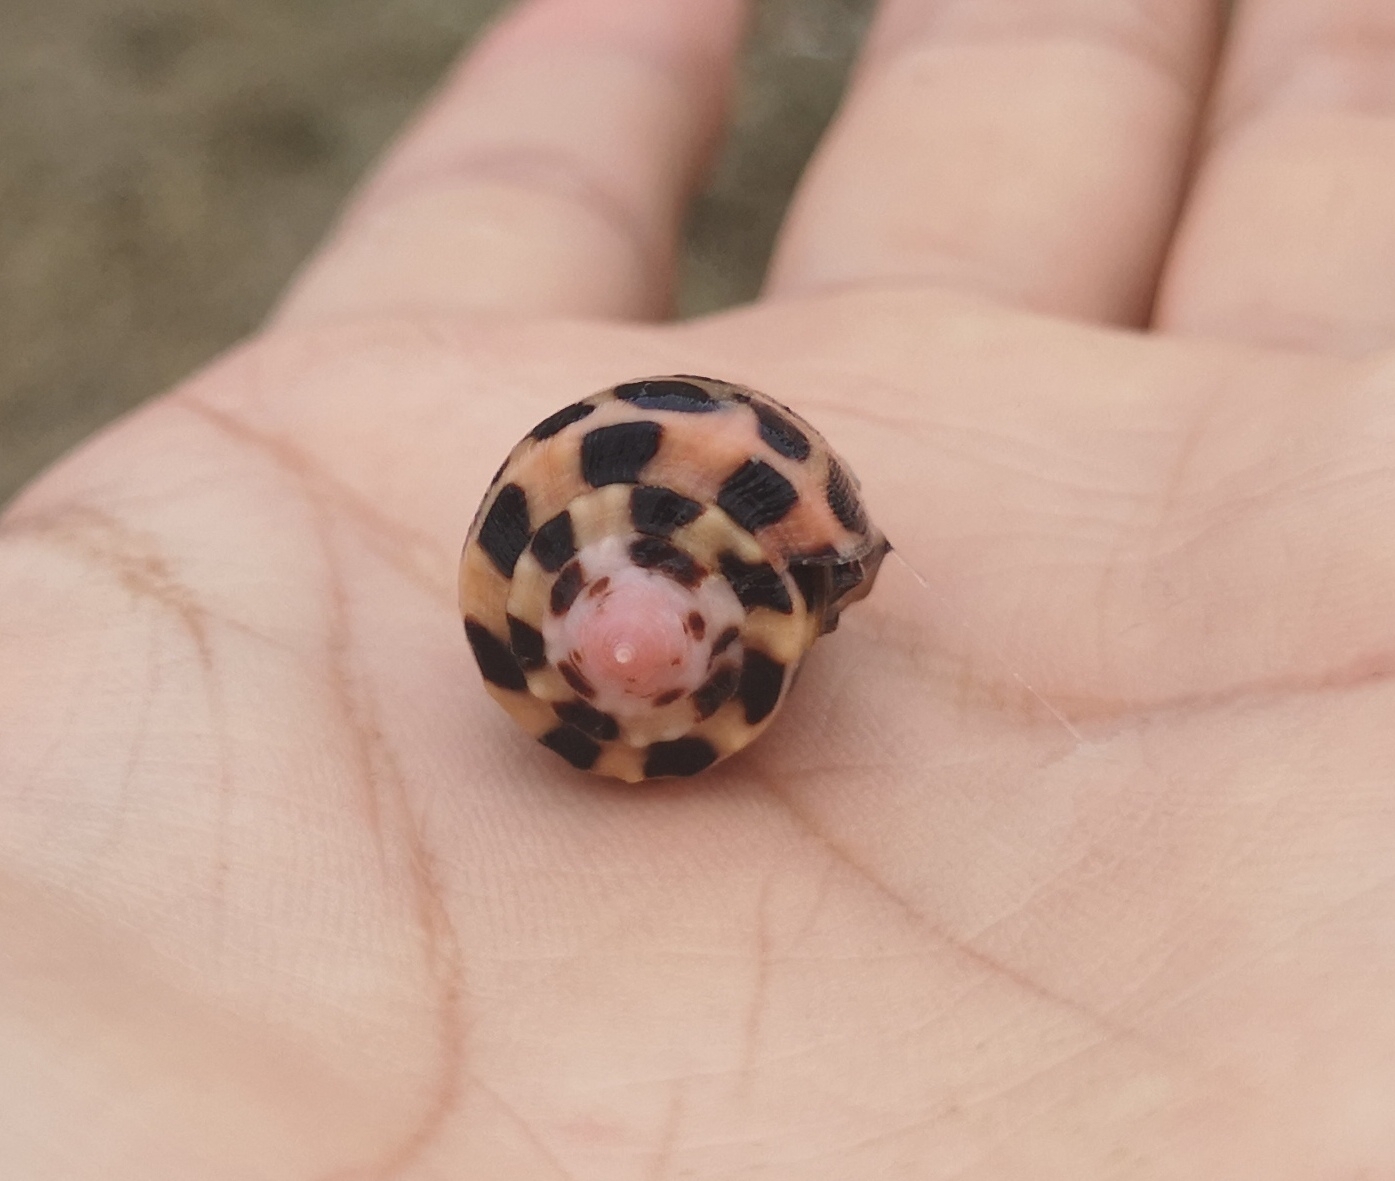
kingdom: Animalia
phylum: Mollusca
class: Gastropoda
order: Neogastropoda
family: Conidae
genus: Conus
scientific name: Conus ebraeus
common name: Hebrew cone
